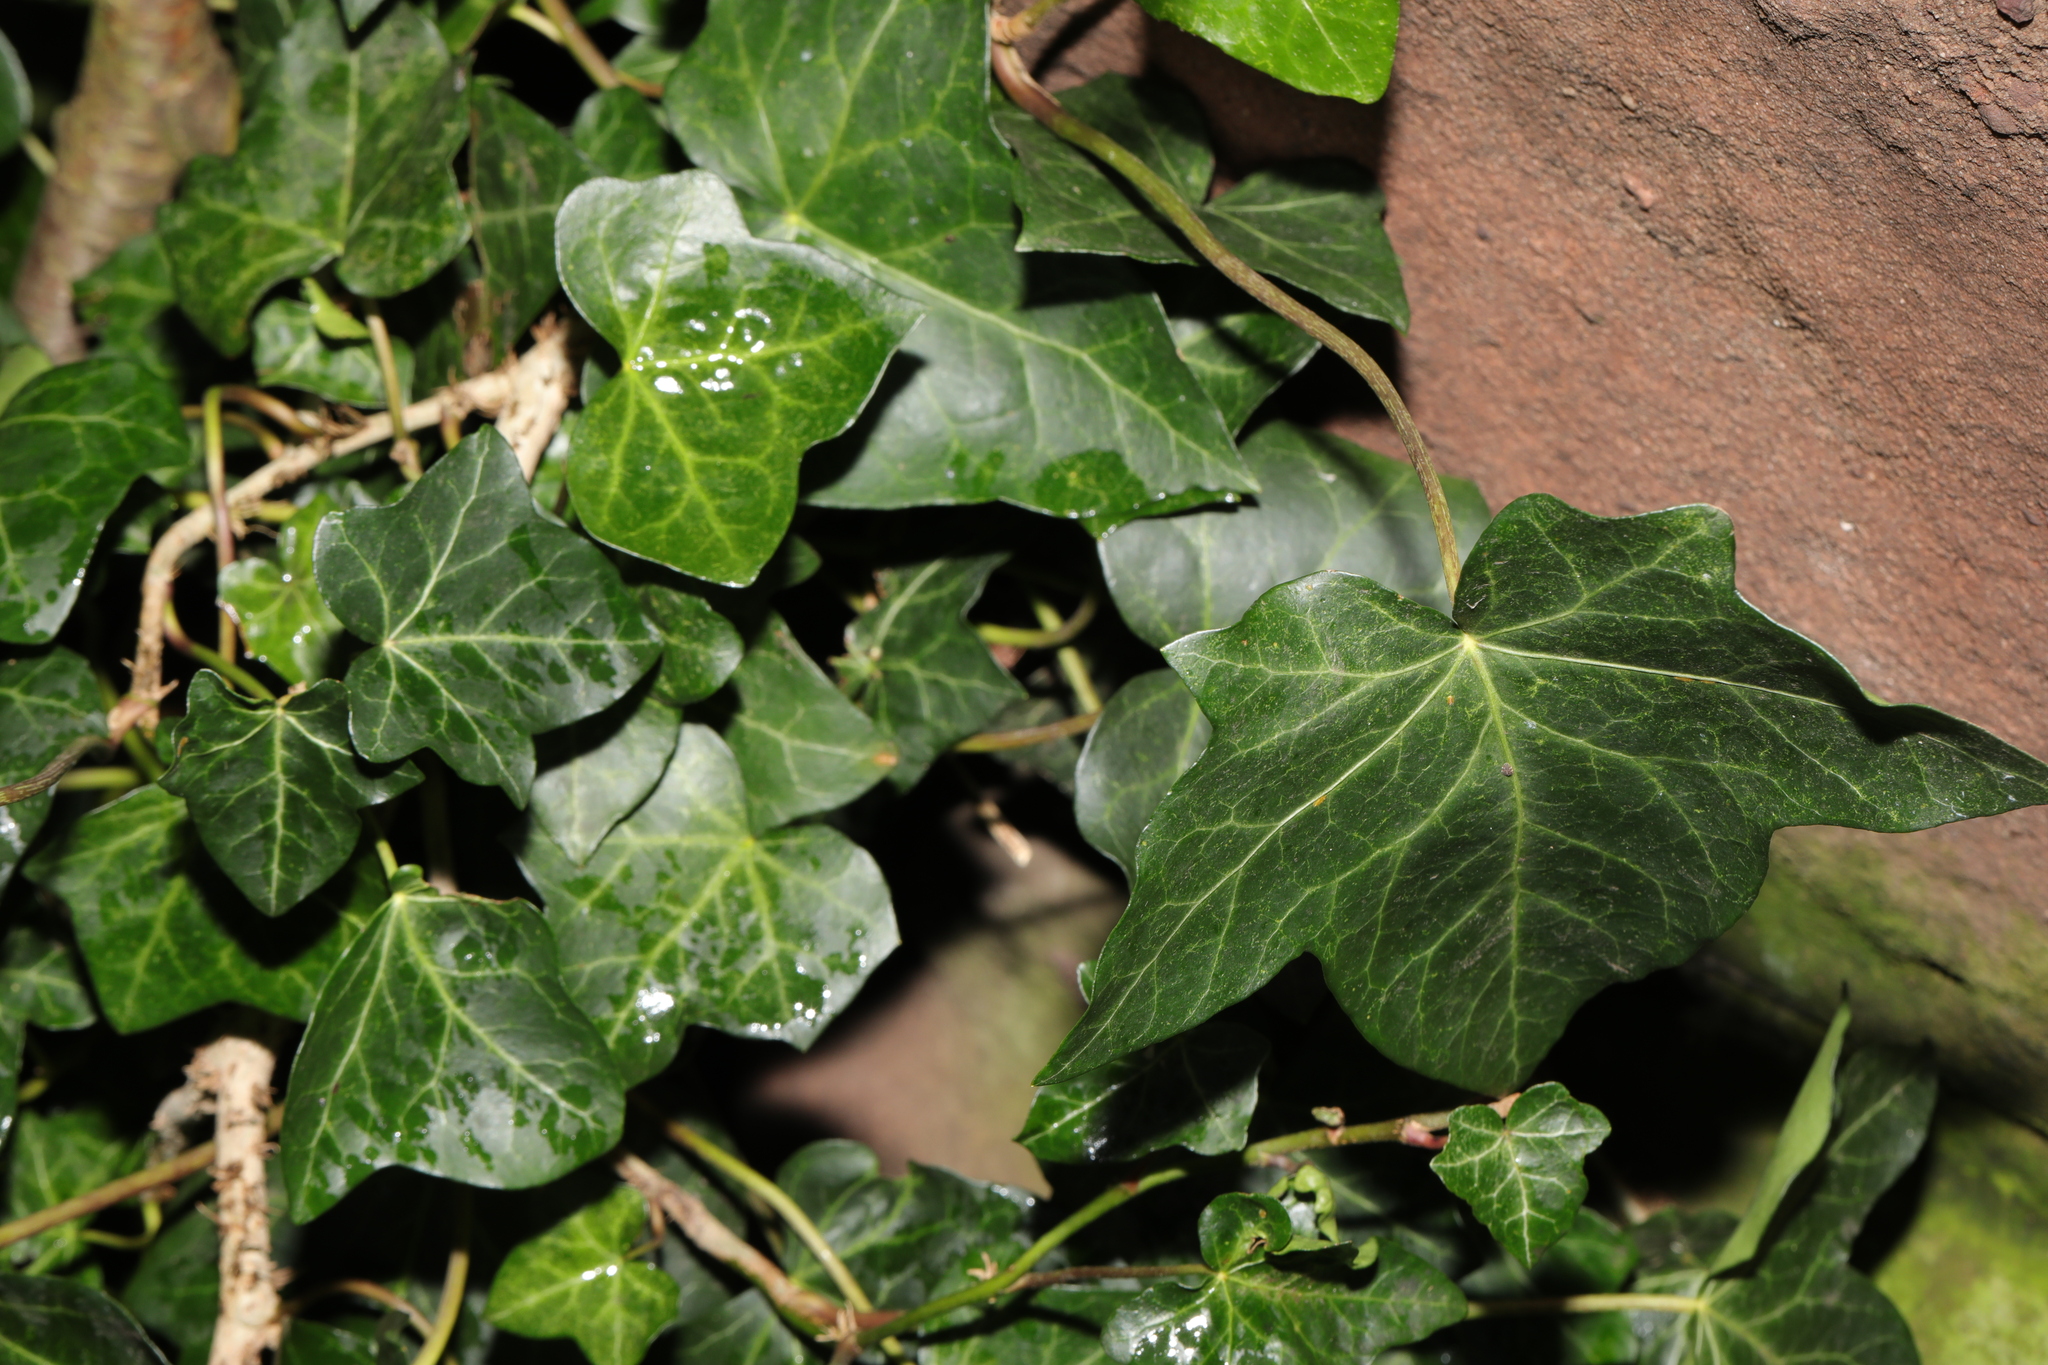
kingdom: Plantae
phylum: Tracheophyta
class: Magnoliopsida
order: Apiales
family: Araliaceae
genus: Hedera
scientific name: Hedera helix
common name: Ivy
